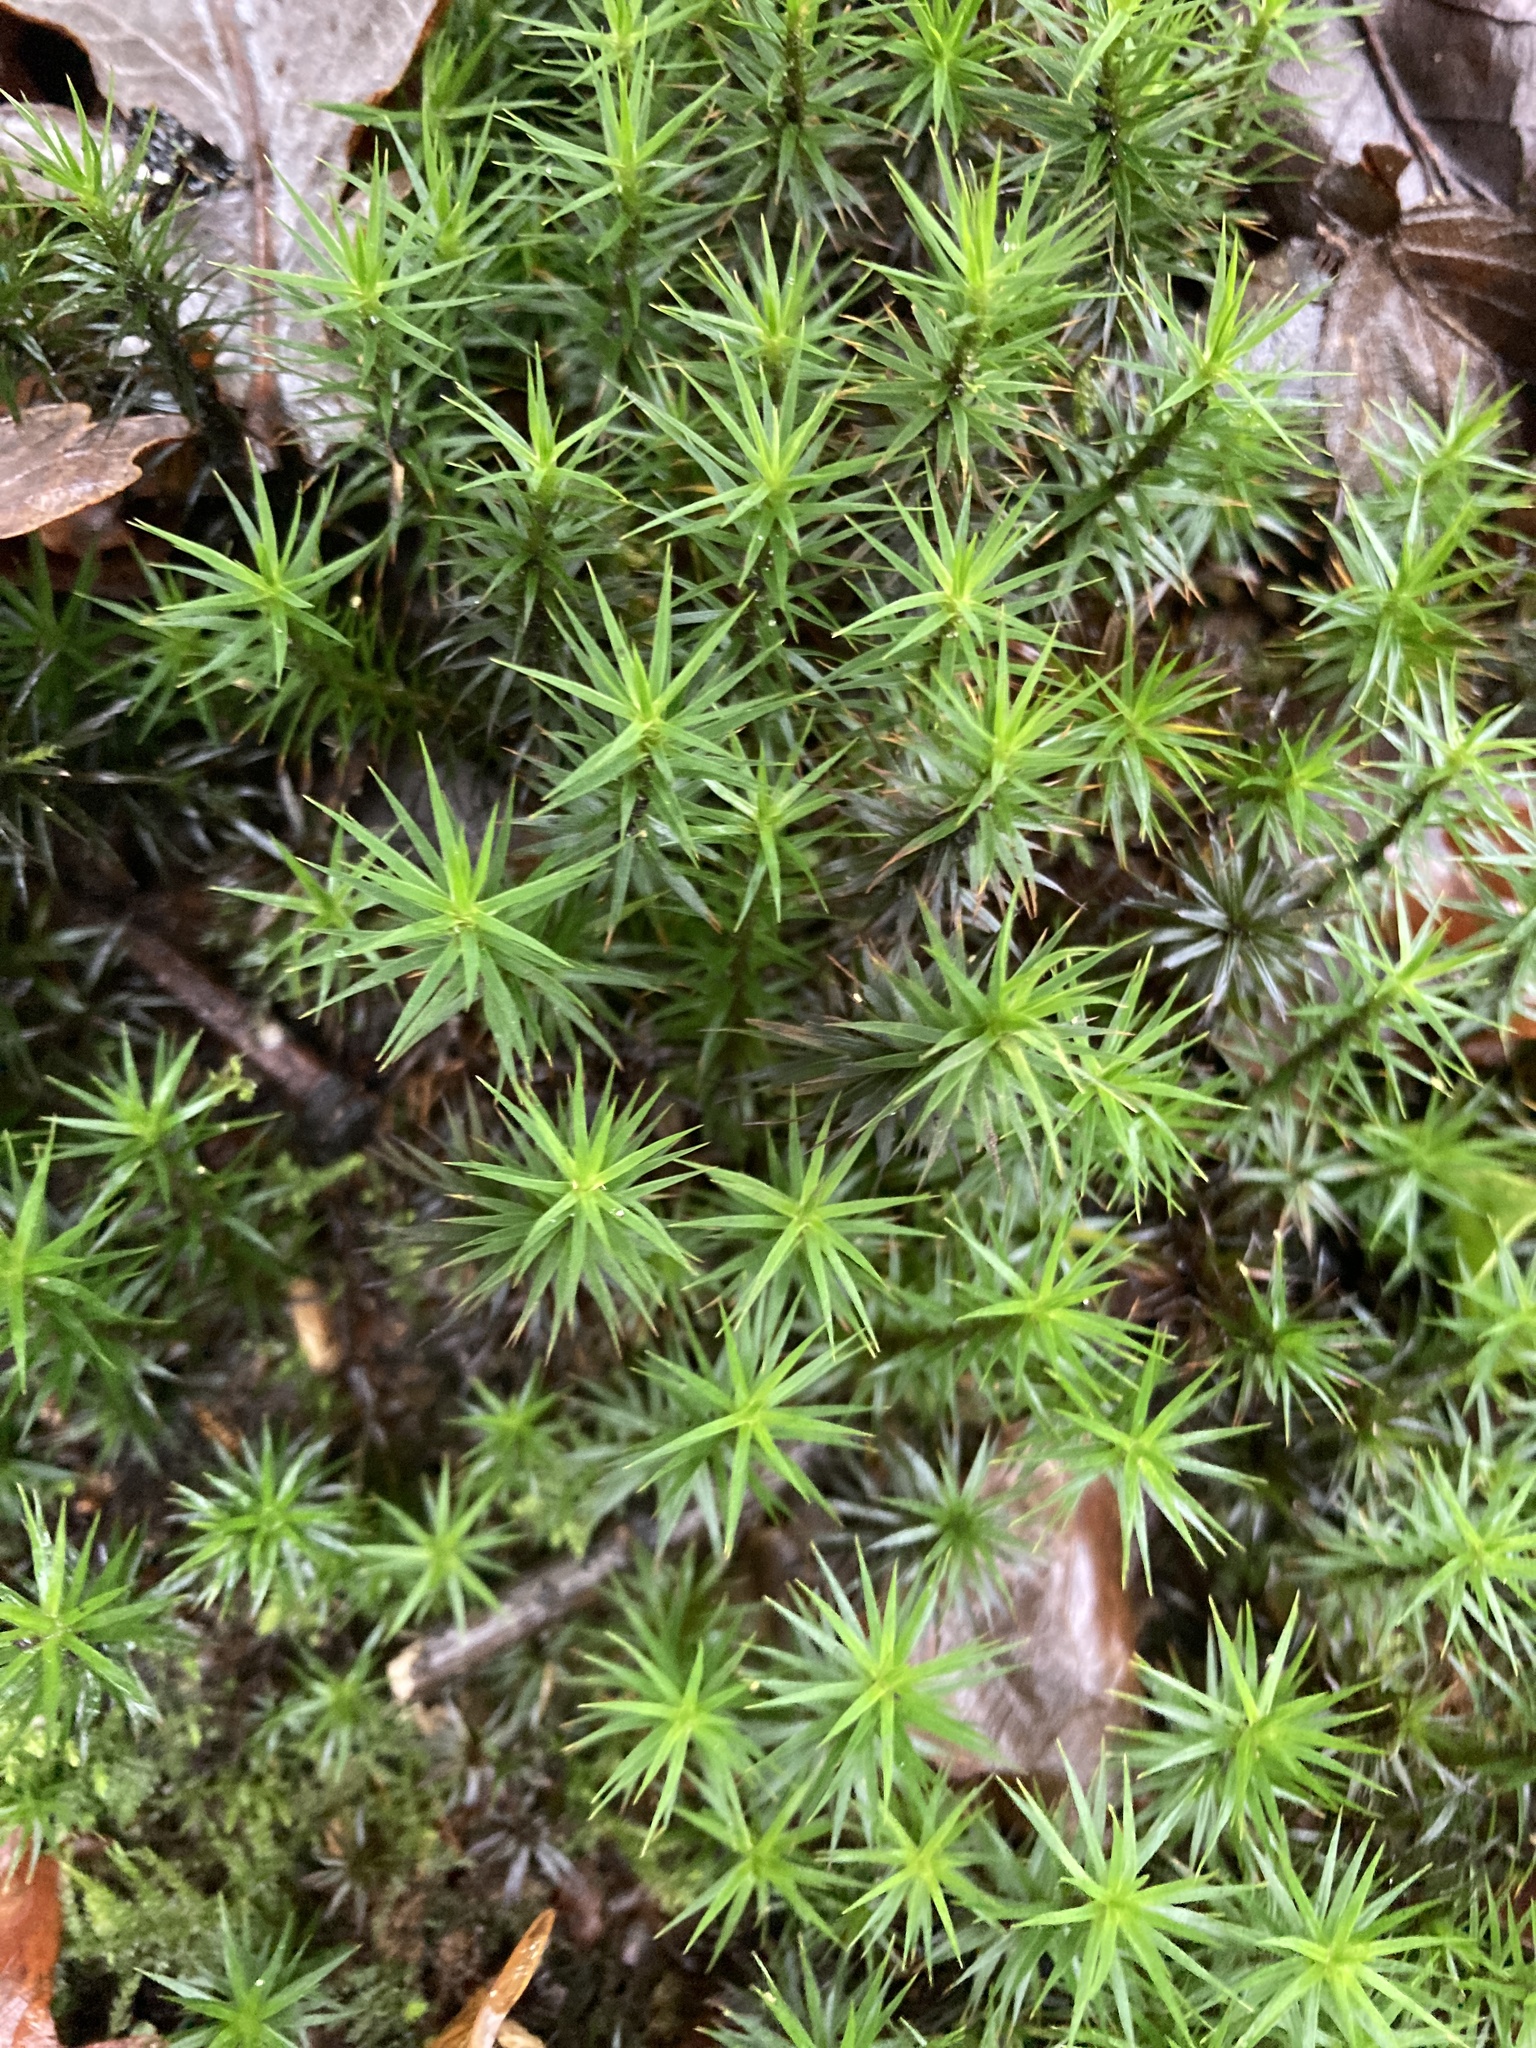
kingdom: Plantae
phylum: Bryophyta
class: Polytrichopsida
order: Polytrichales
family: Polytrichaceae
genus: Polytrichum
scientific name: Polytrichum formosum
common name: Bank haircap moss
